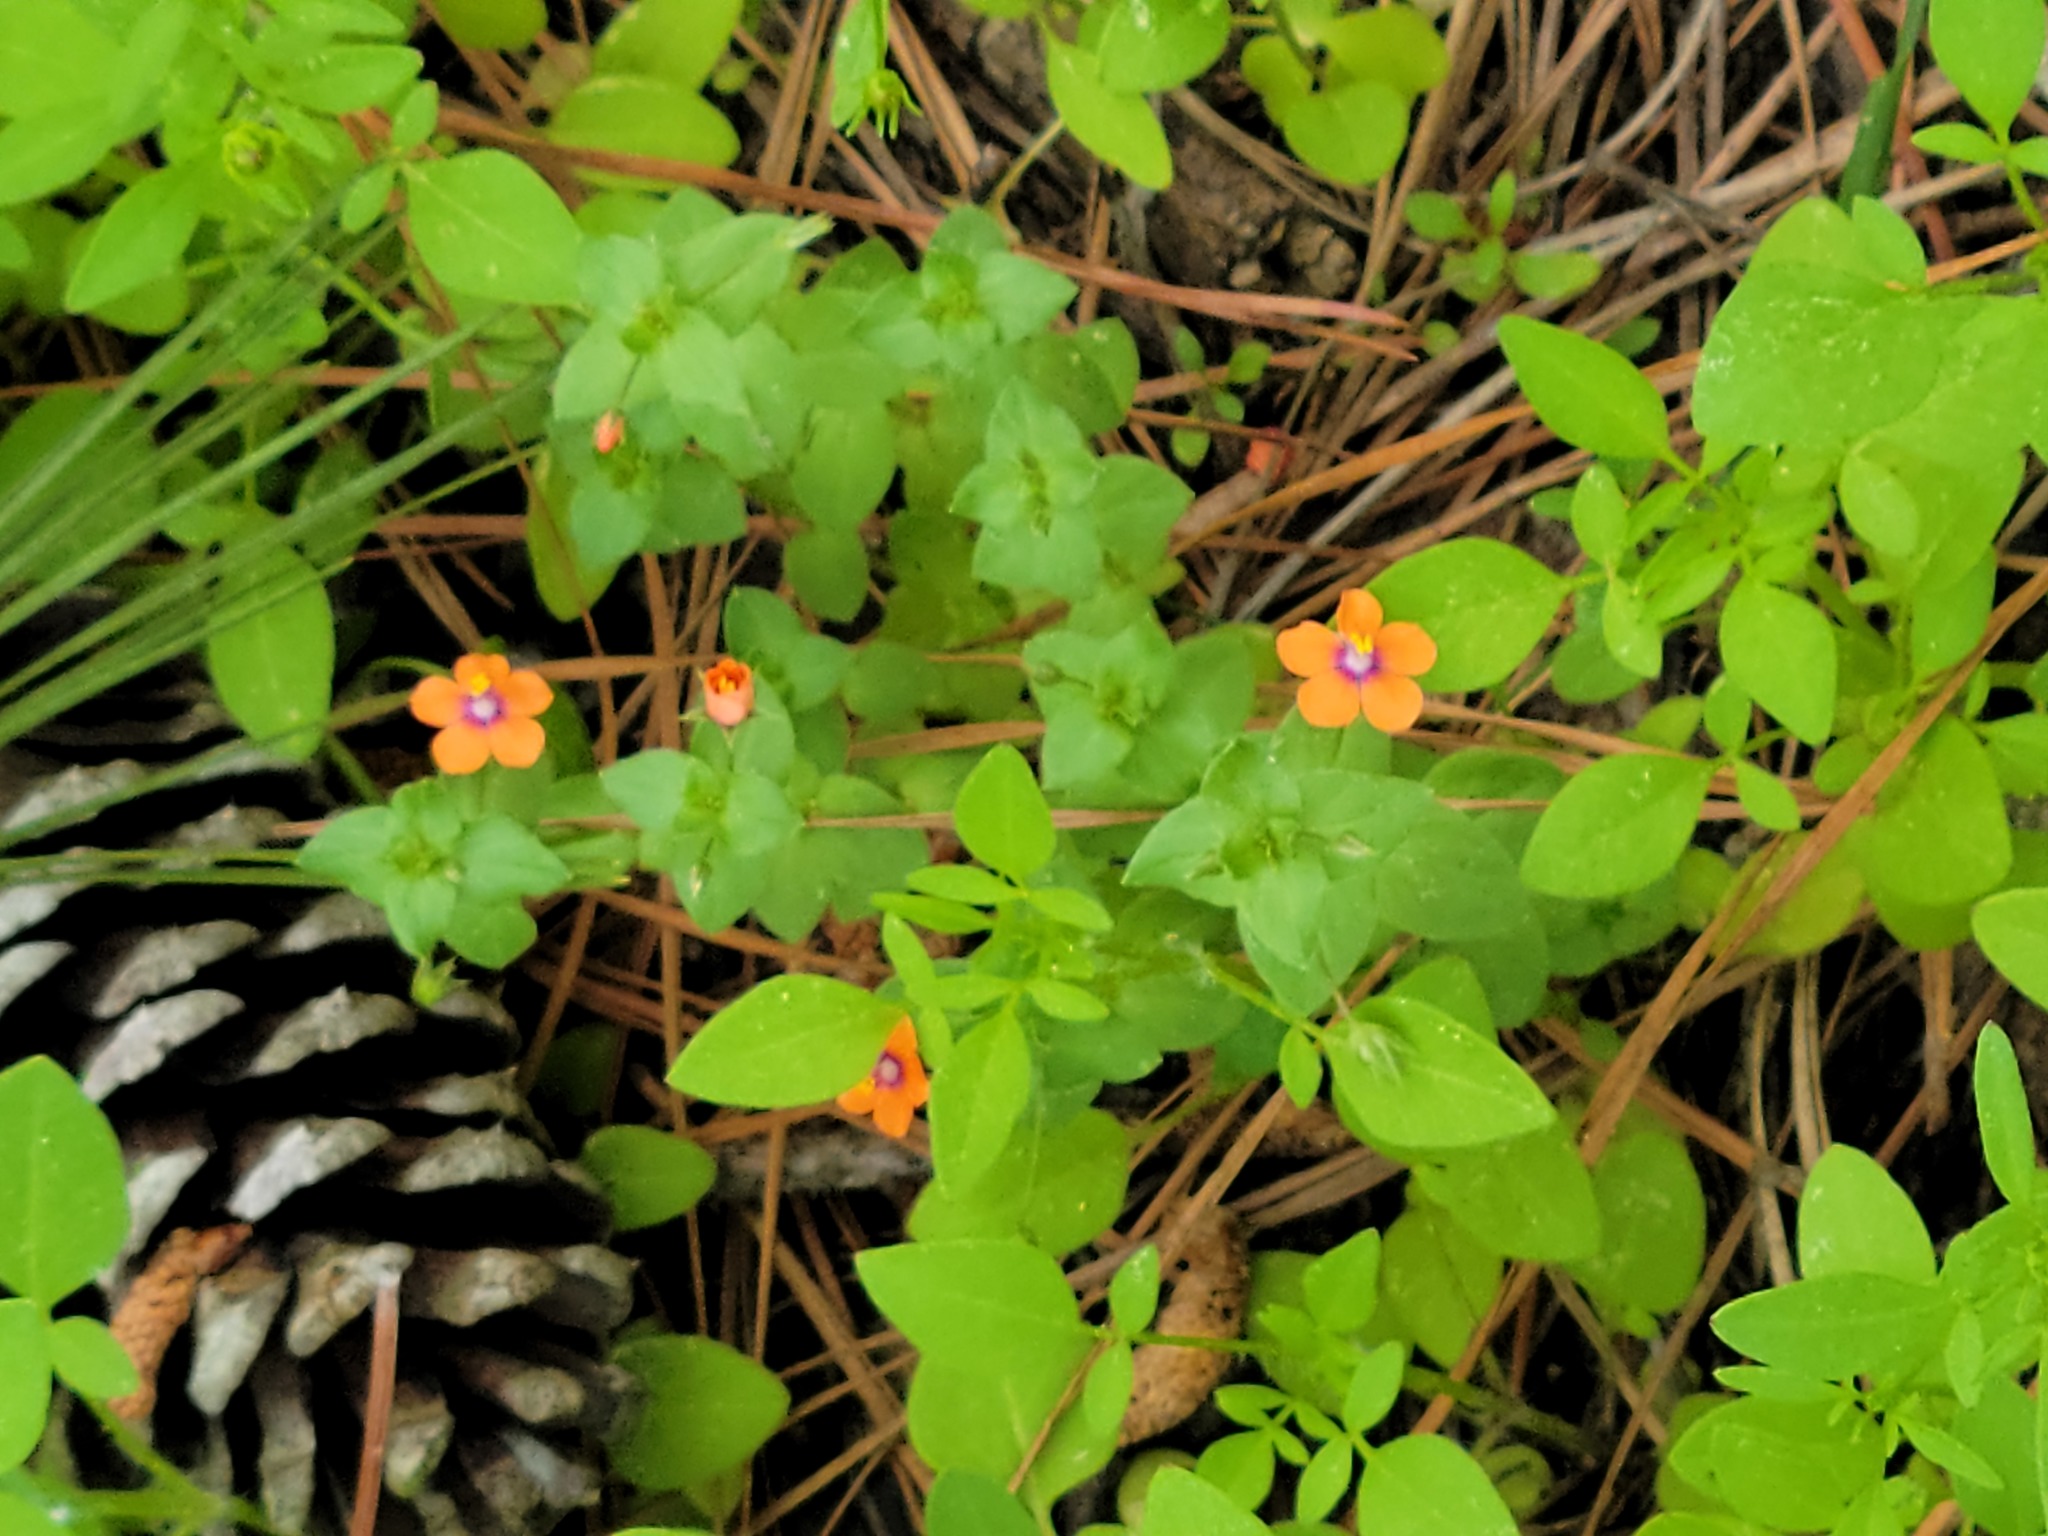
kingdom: Plantae
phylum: Tracheophyta
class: Magnoliopsida
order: Ericales
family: Primulaceae
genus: Lysimachia
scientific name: Lysimachia arvensis
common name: Scarlet pimpernel
